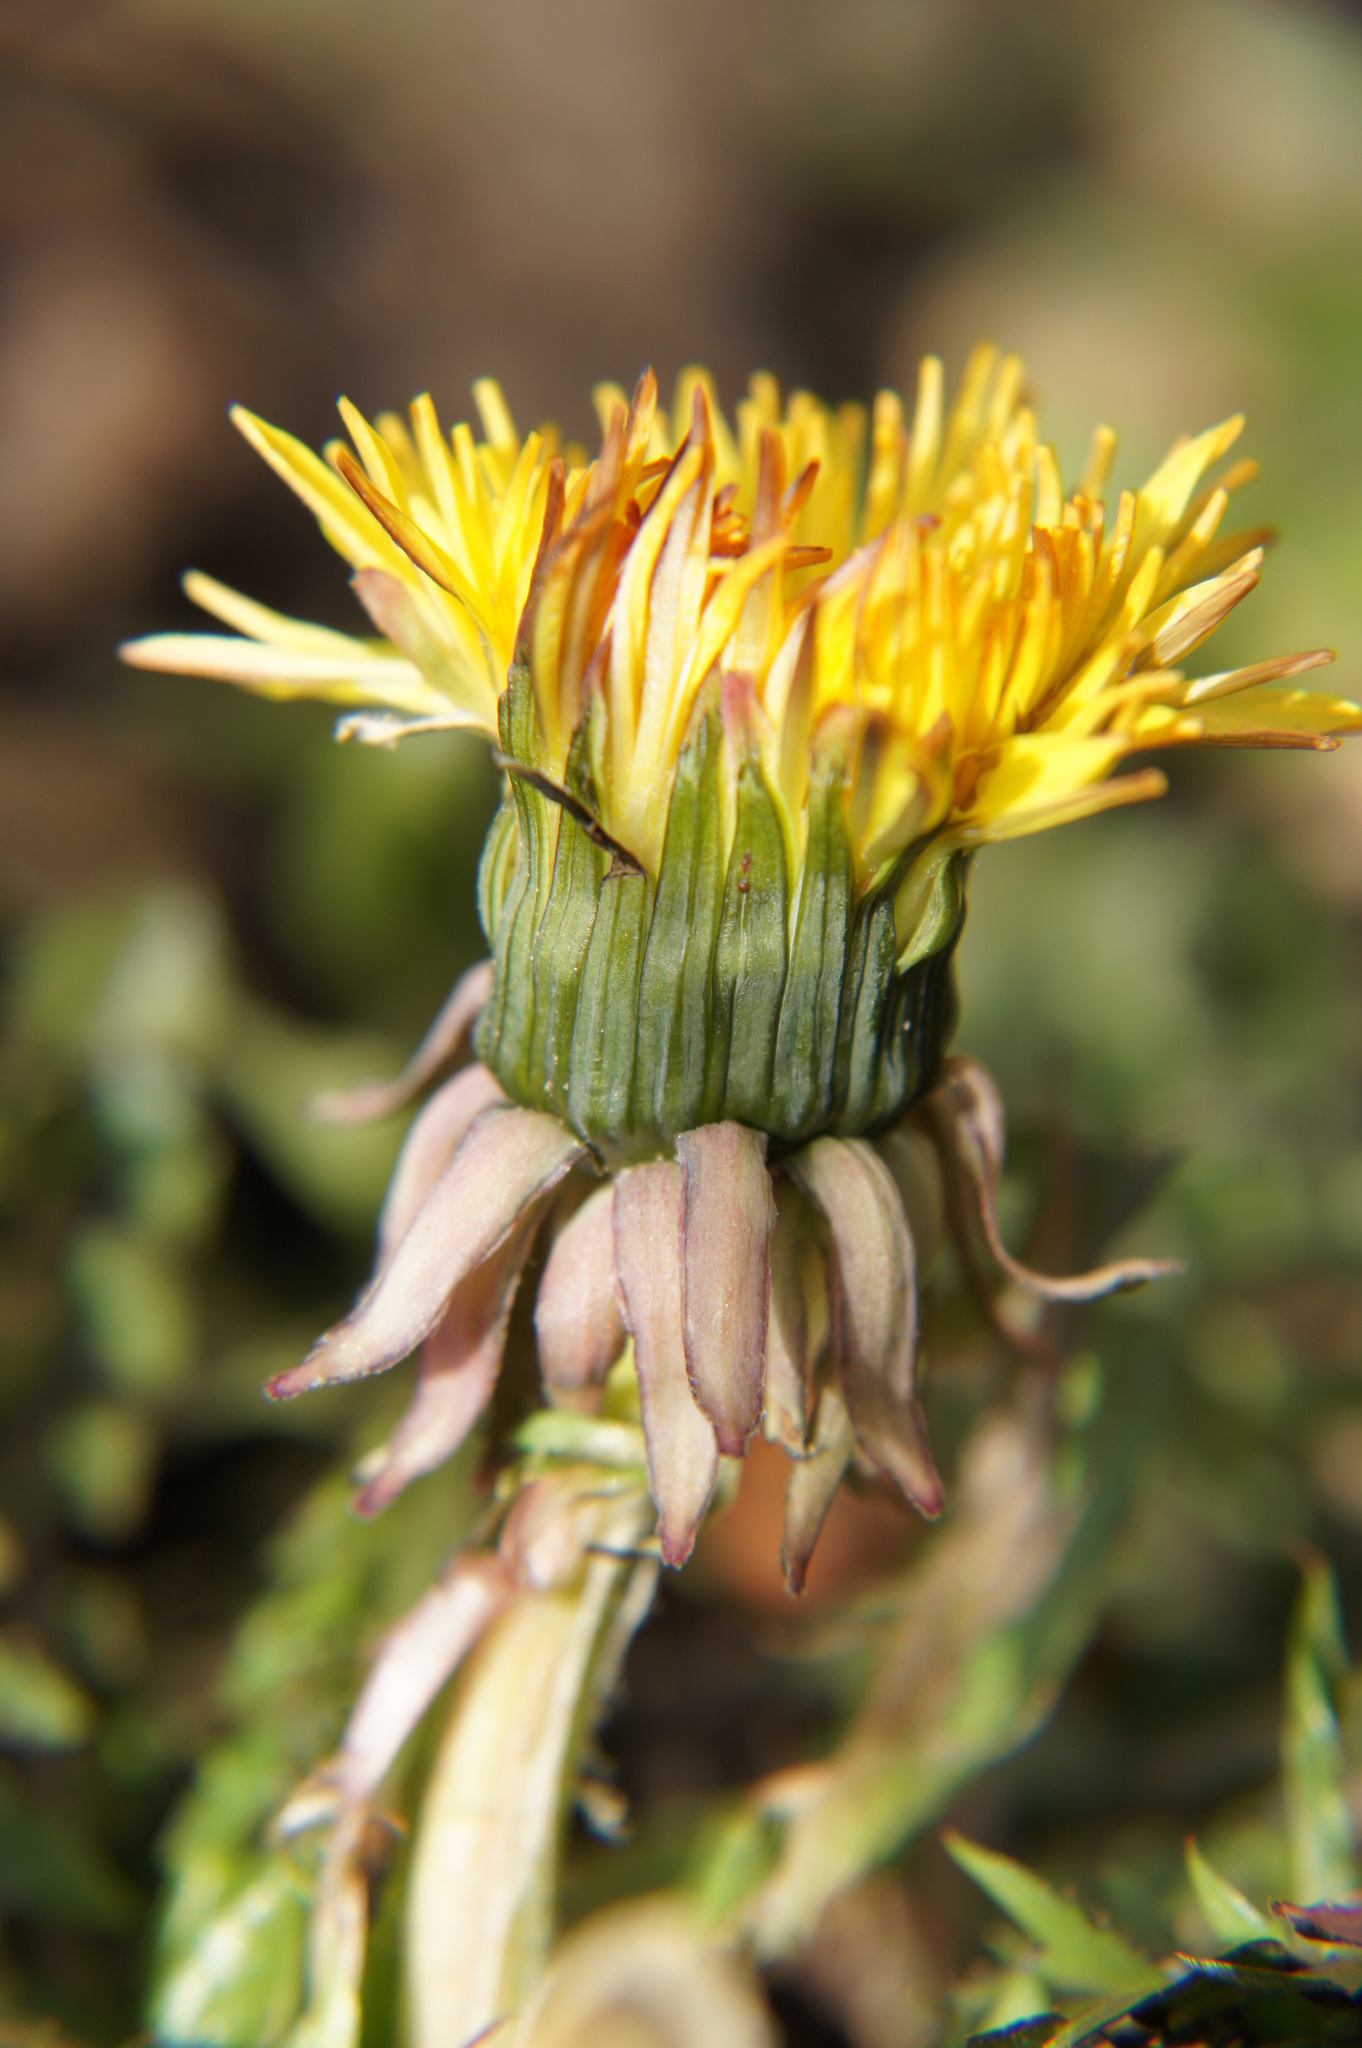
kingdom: Plantae
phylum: Tracheophyta
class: Magnoliopsida
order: Asterales
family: Asteraceae
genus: Taraxacum
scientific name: Taraxacum officinale
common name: Common dandelion
